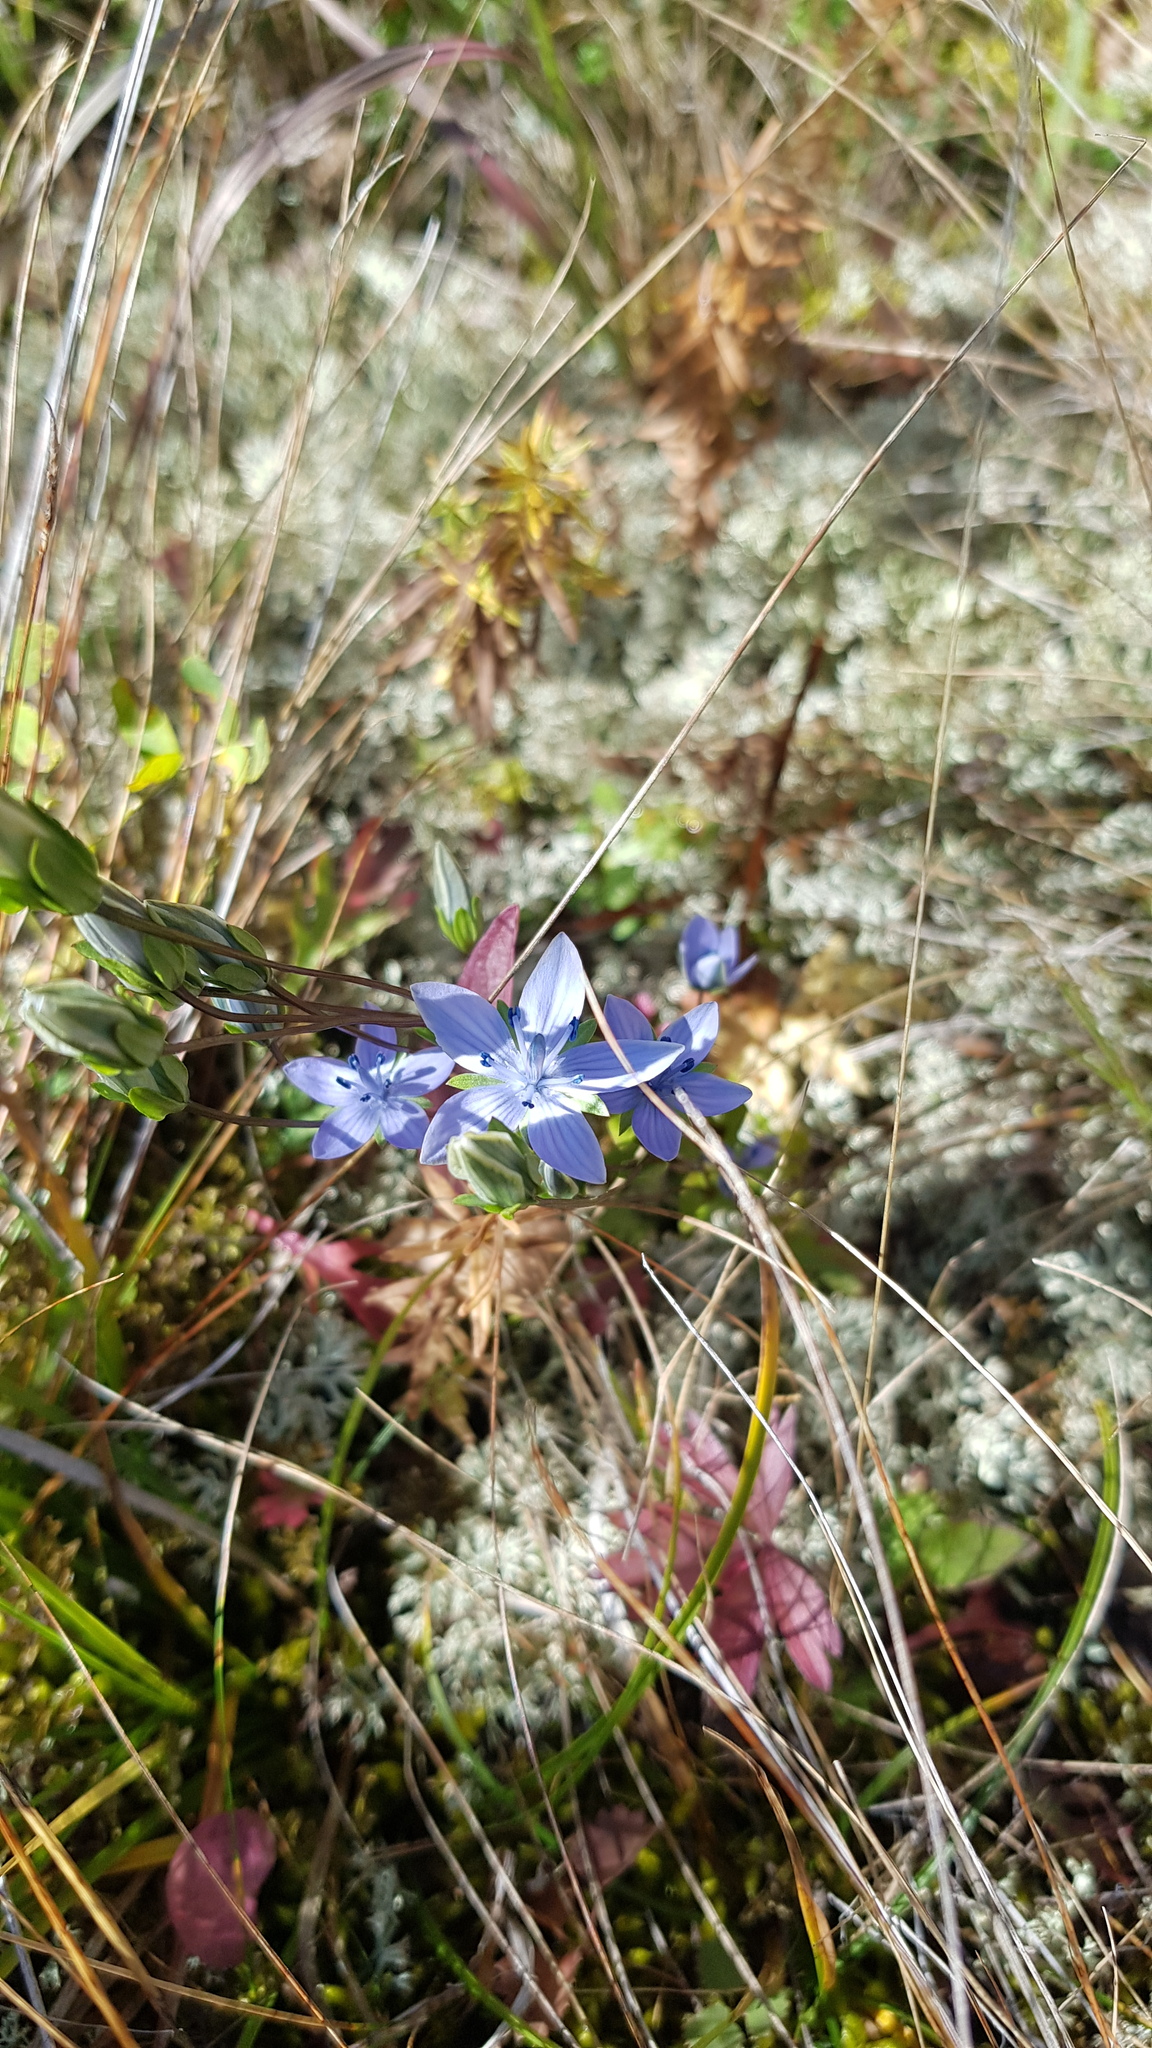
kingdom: Plantae
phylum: Tracheophyta
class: Magnoliopsida
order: Gentianales
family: Gentianaceae
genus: Lomatogonium
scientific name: Lomatogonium carinthiacum
